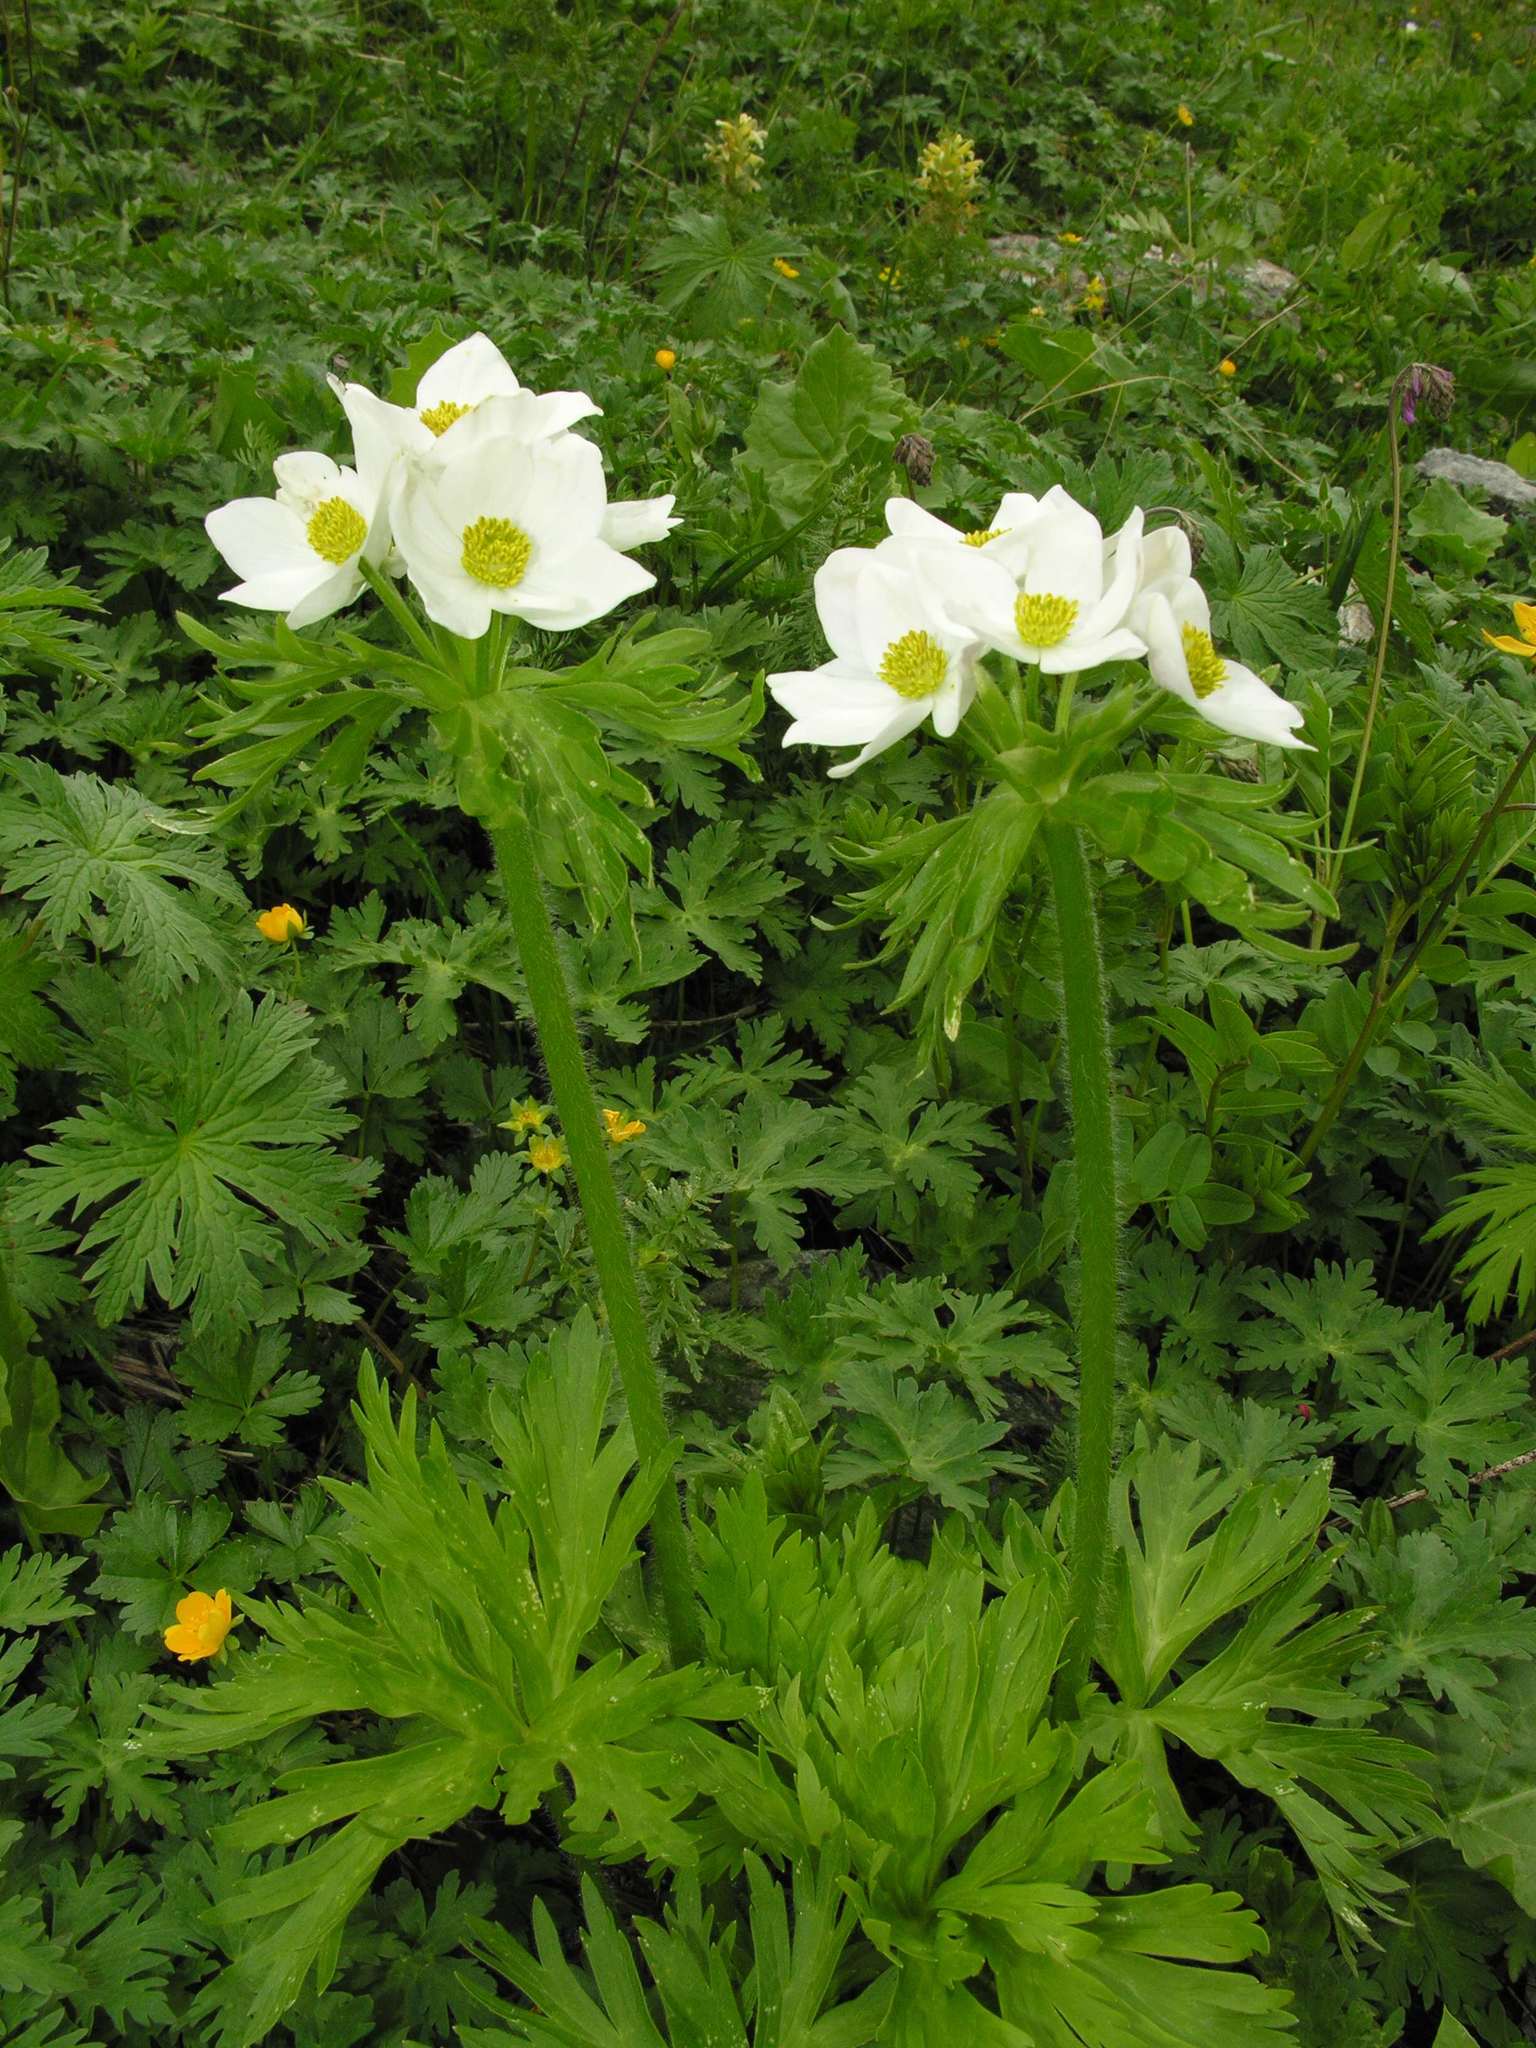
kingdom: Plantae
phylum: Tracheophyta
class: Magnoliopsida
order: Ranunculales
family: Ranunculaceae
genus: Anemonastrum
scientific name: Anemonastrum narcissiflorum
